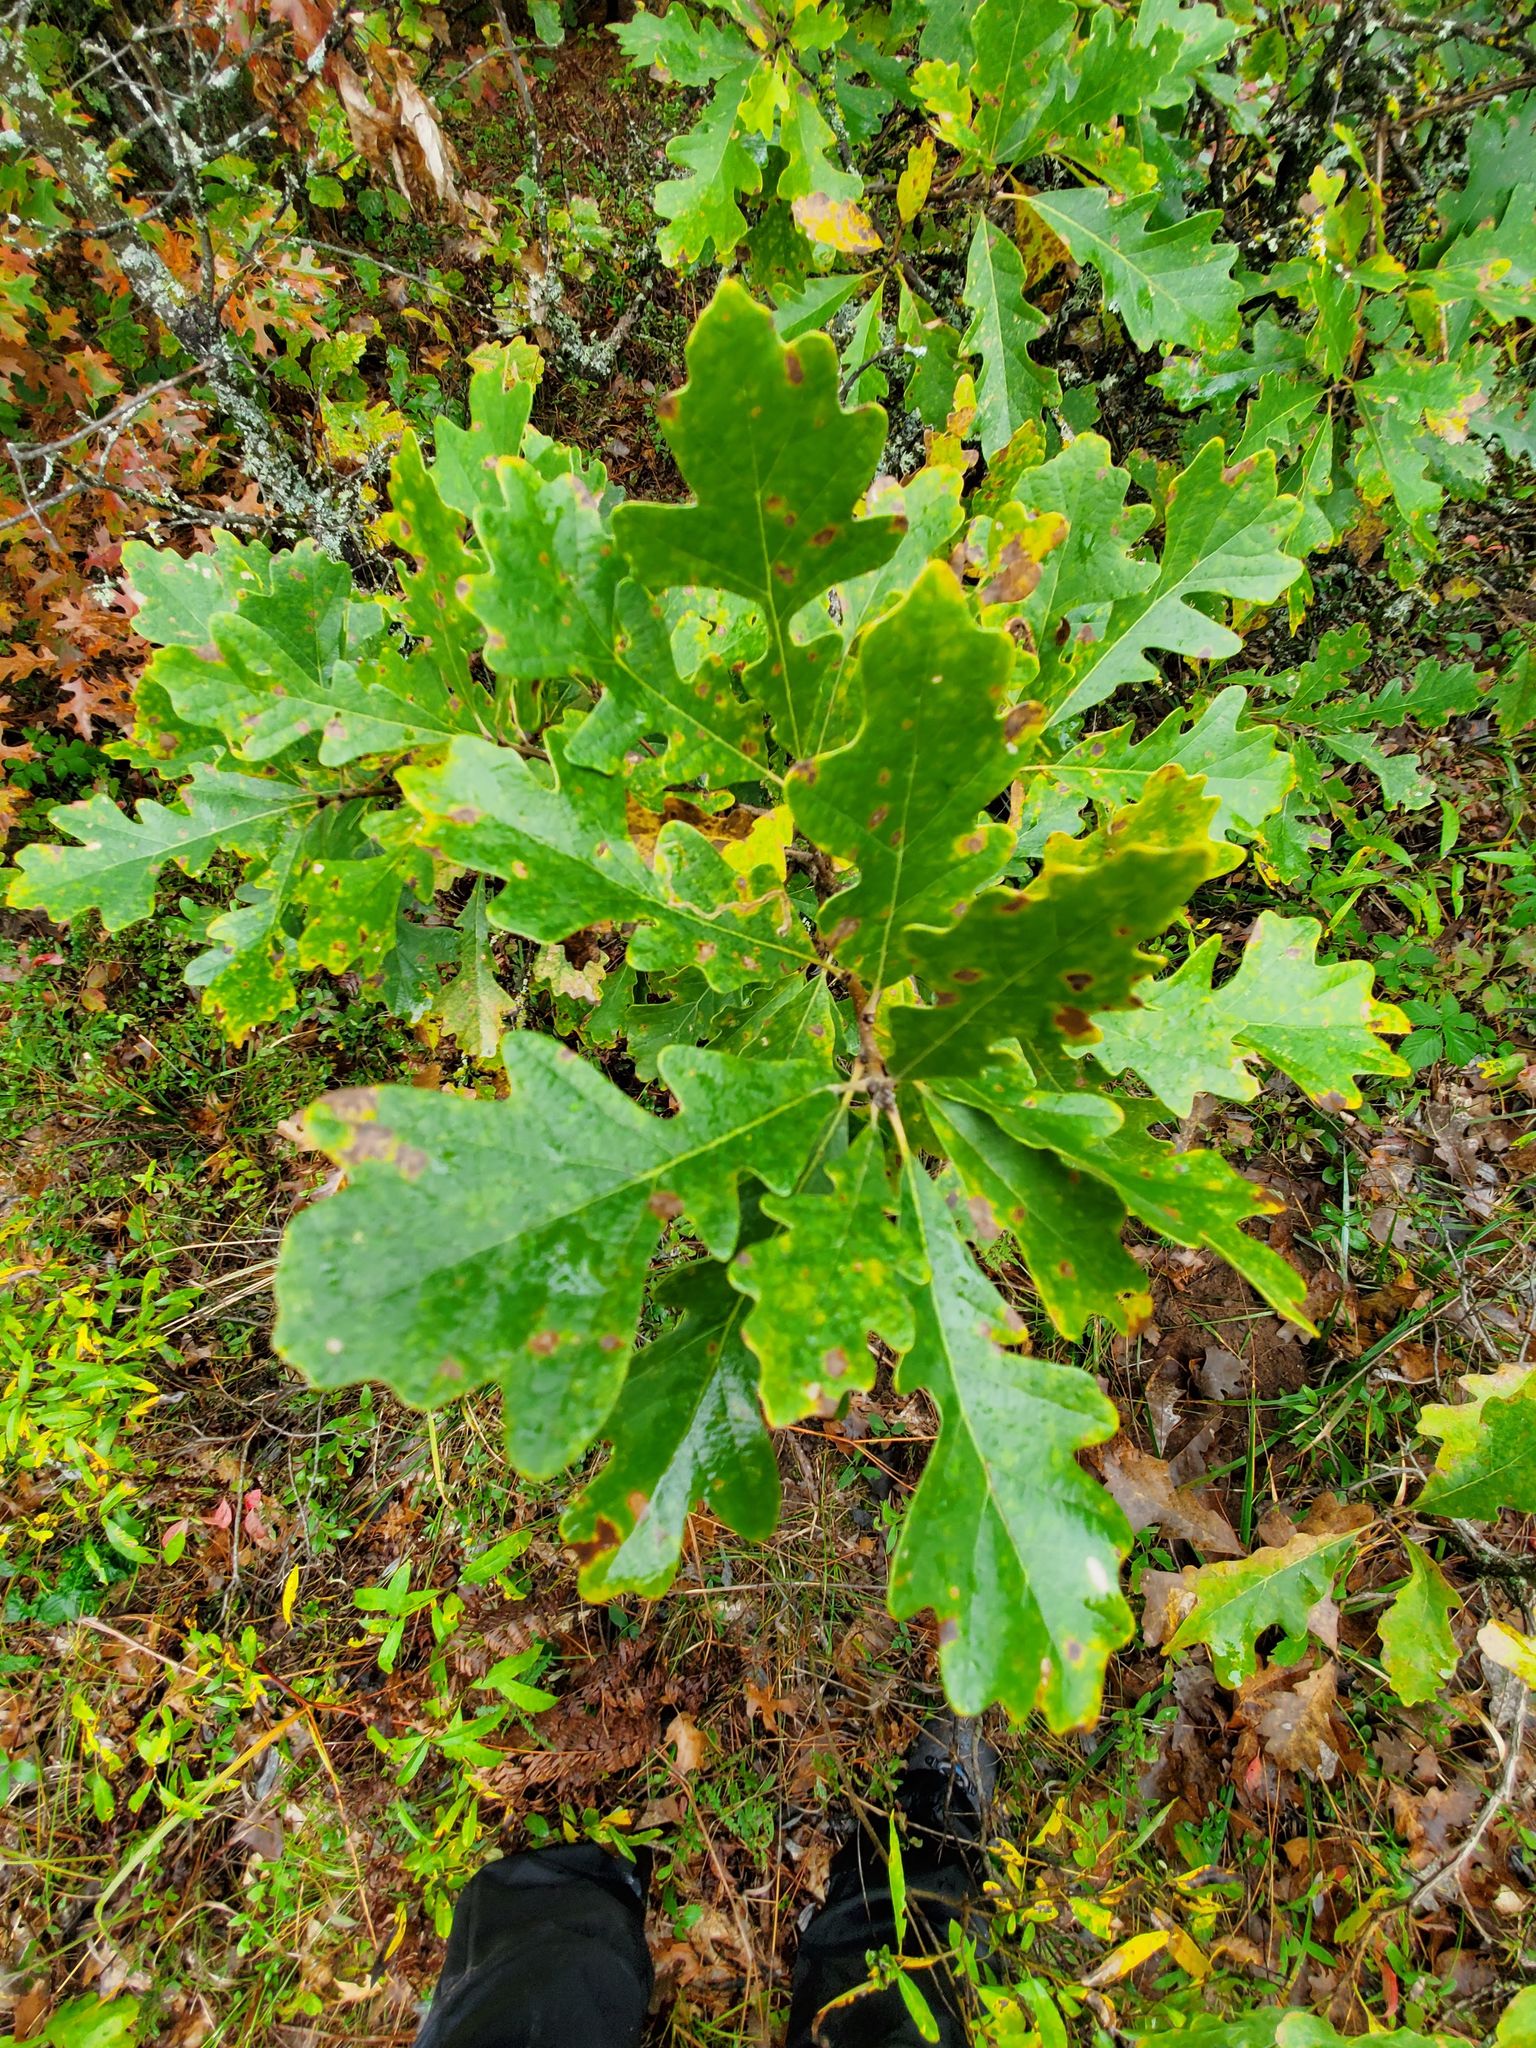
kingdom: Plantae
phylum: Tracheophyta
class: Magnoliopsida
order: Fagales
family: Fagaceae
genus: Quercus
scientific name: Quercus macrocarpa
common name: Bur oak
